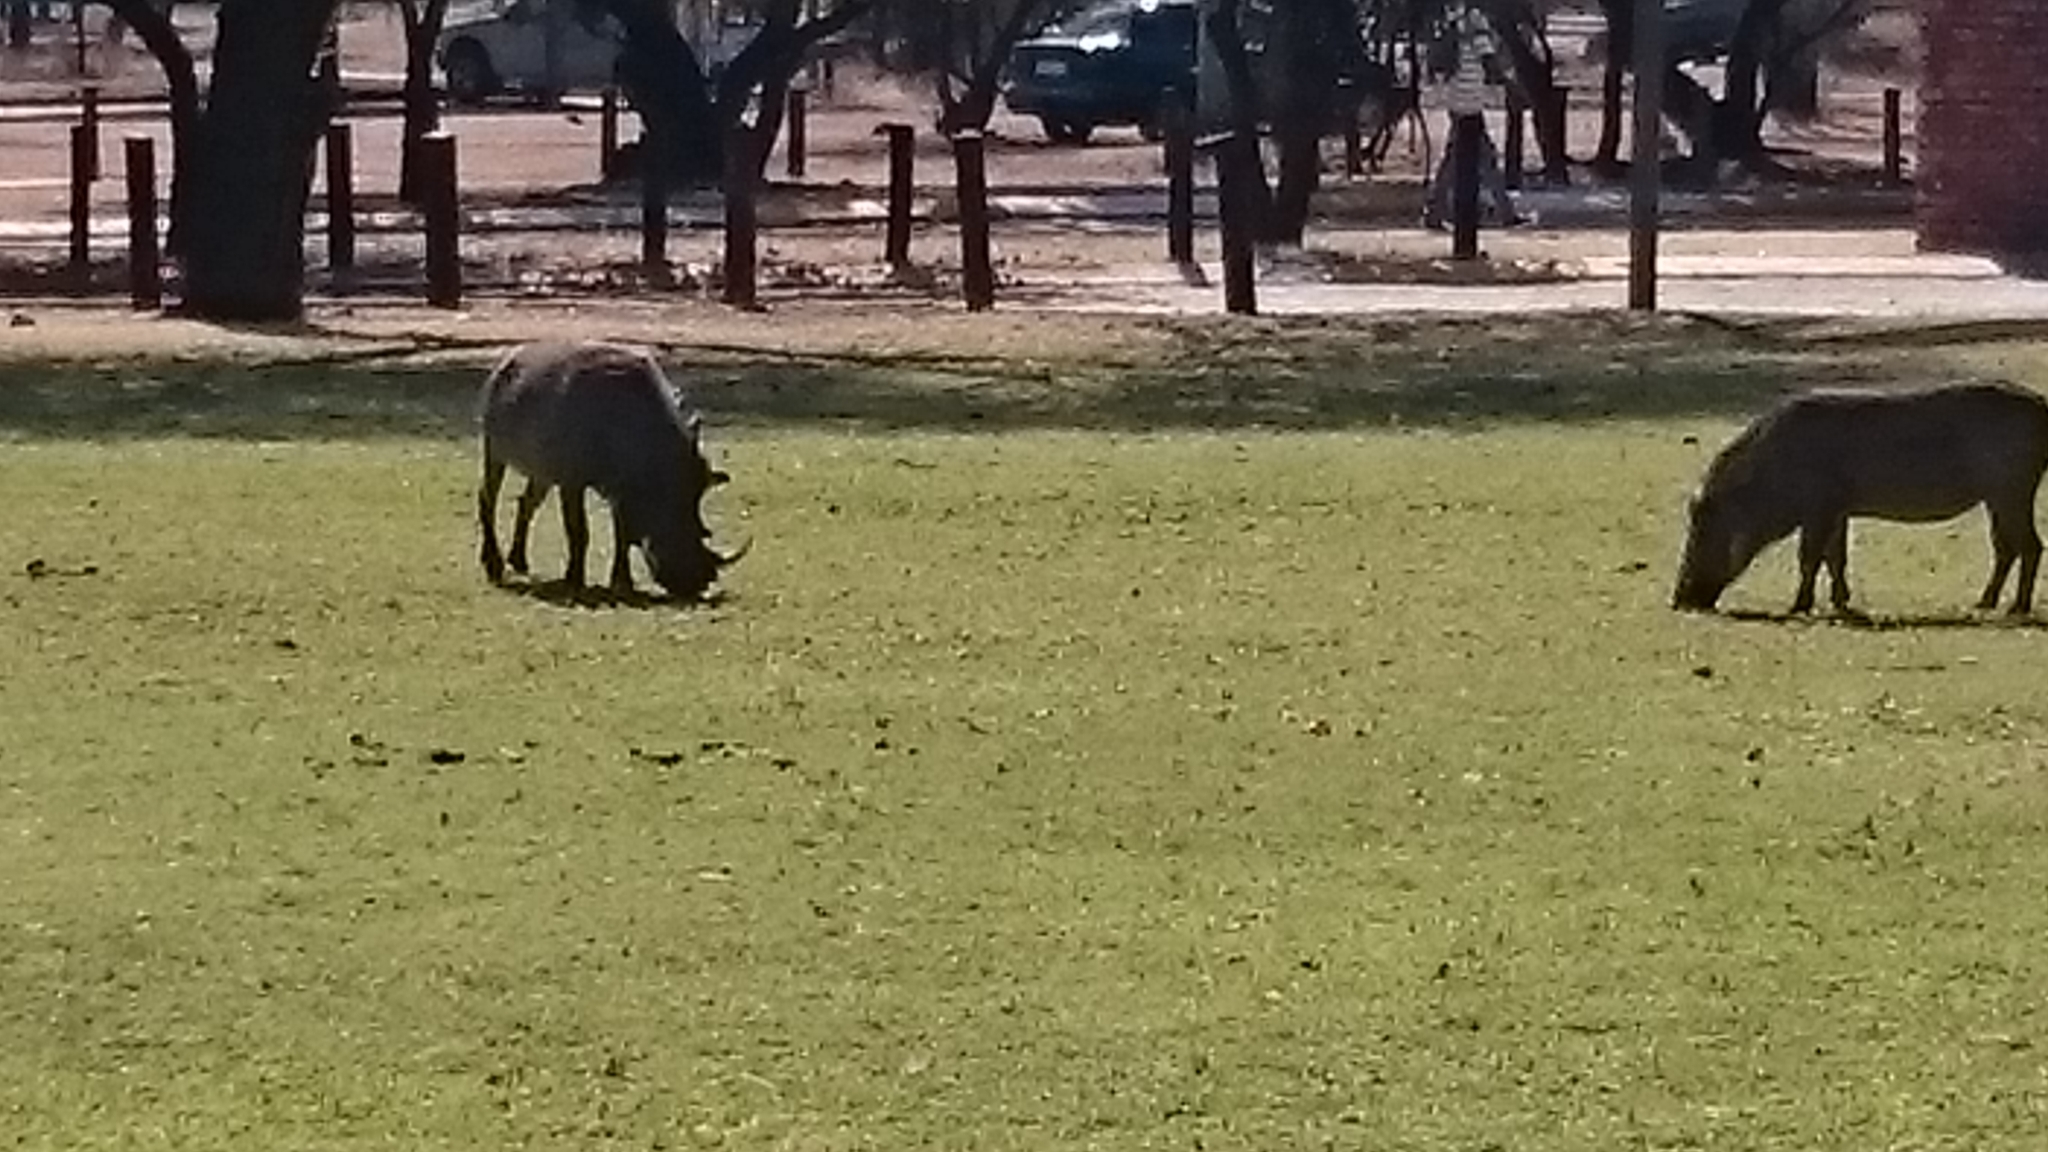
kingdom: Animalia
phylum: Chordata
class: Mammalia
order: Artiodactyla
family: Suidae
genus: Phacochoerus
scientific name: Phacochoerus africanus
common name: Common warthog
